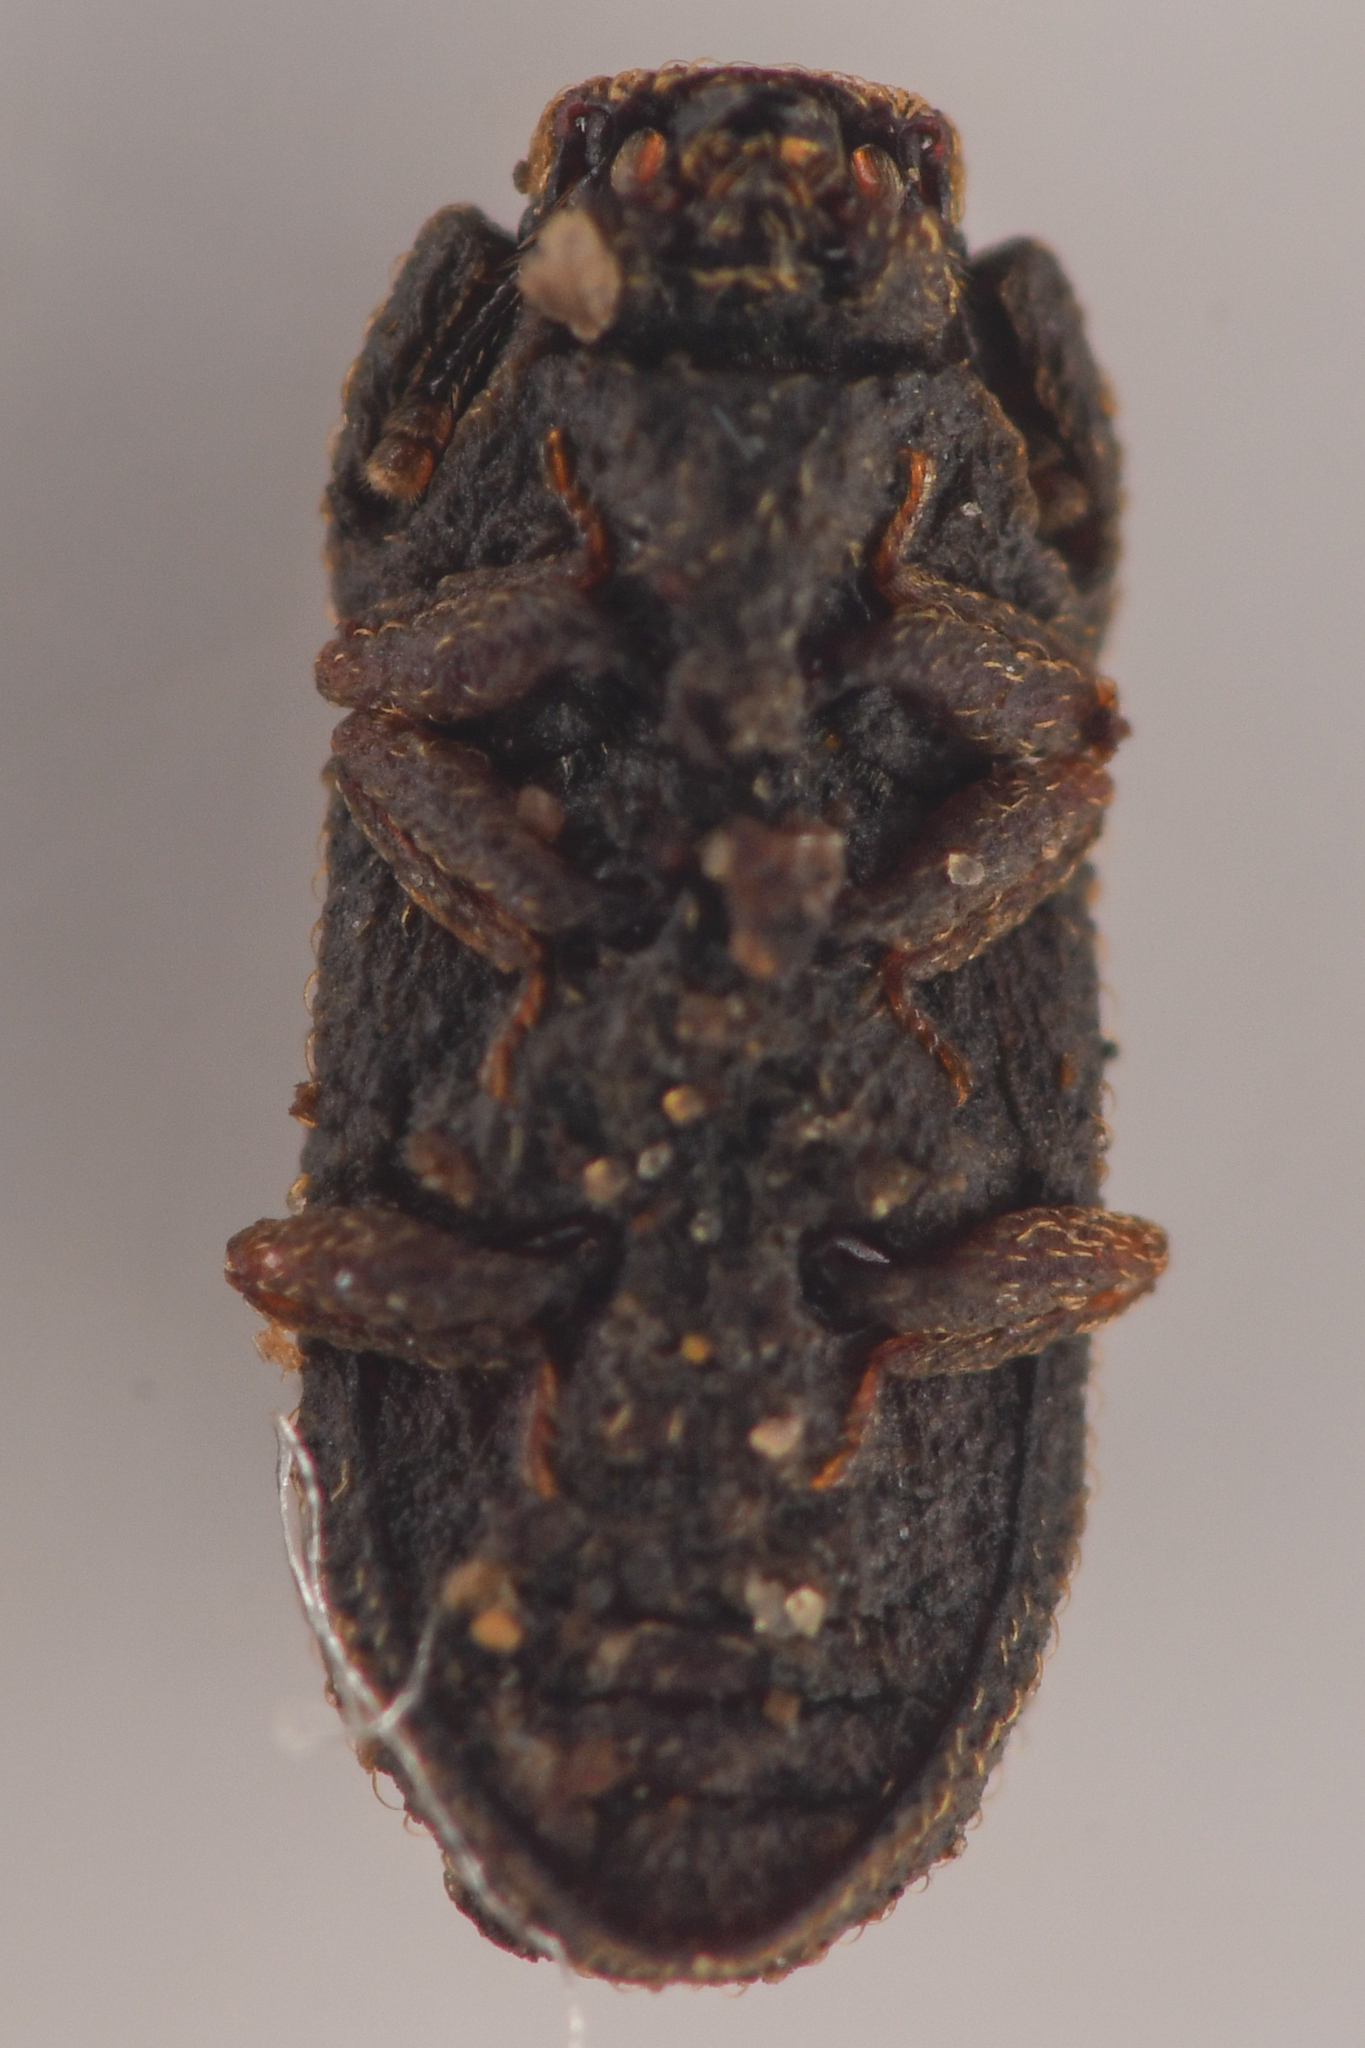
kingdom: Animalia
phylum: Arthropoda
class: Insecta
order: Coleoptera
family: Zopheridae
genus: Megataphrus
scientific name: Megataphrus tenuicornis
